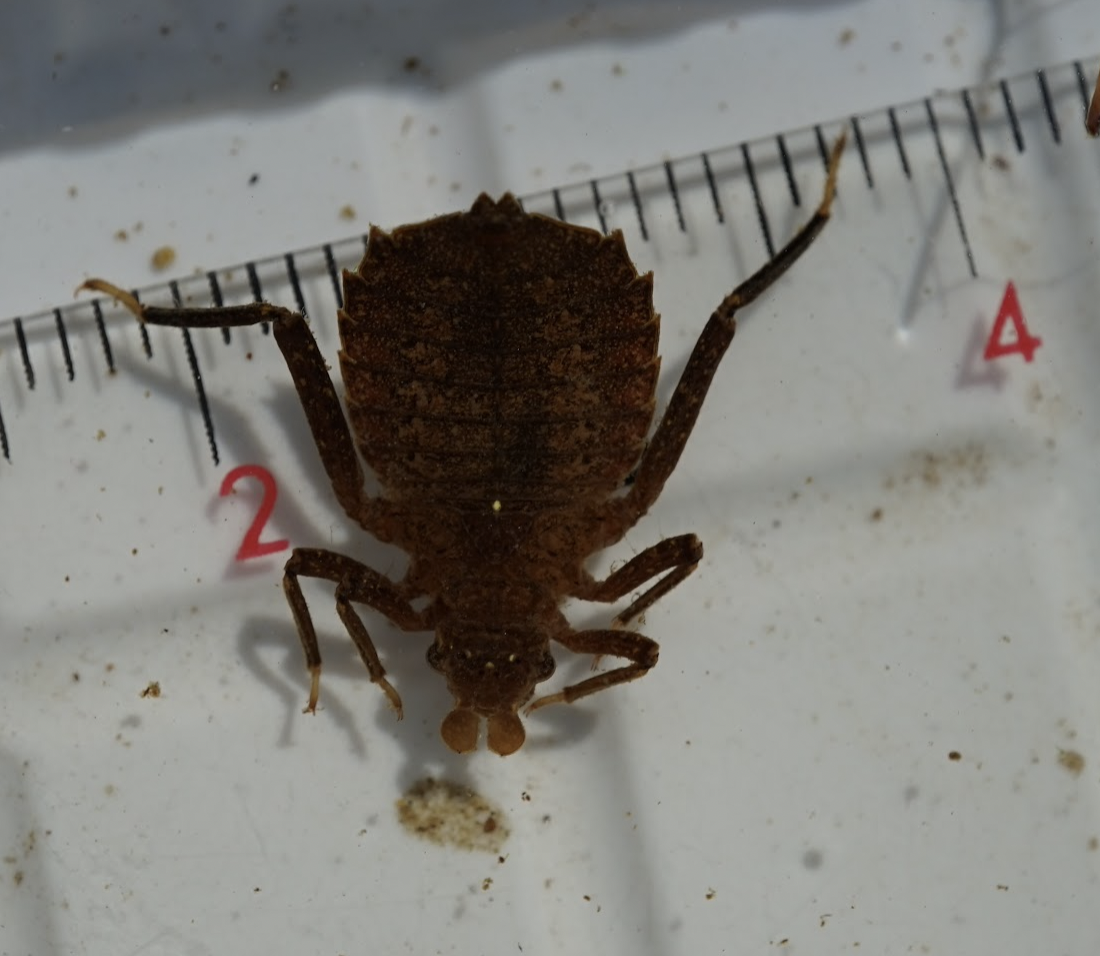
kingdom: Animalia
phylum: Arthropoda
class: Insecta
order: Odonata
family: Gomphidae
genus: Sieboldius
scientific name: Sieboldius albardae
